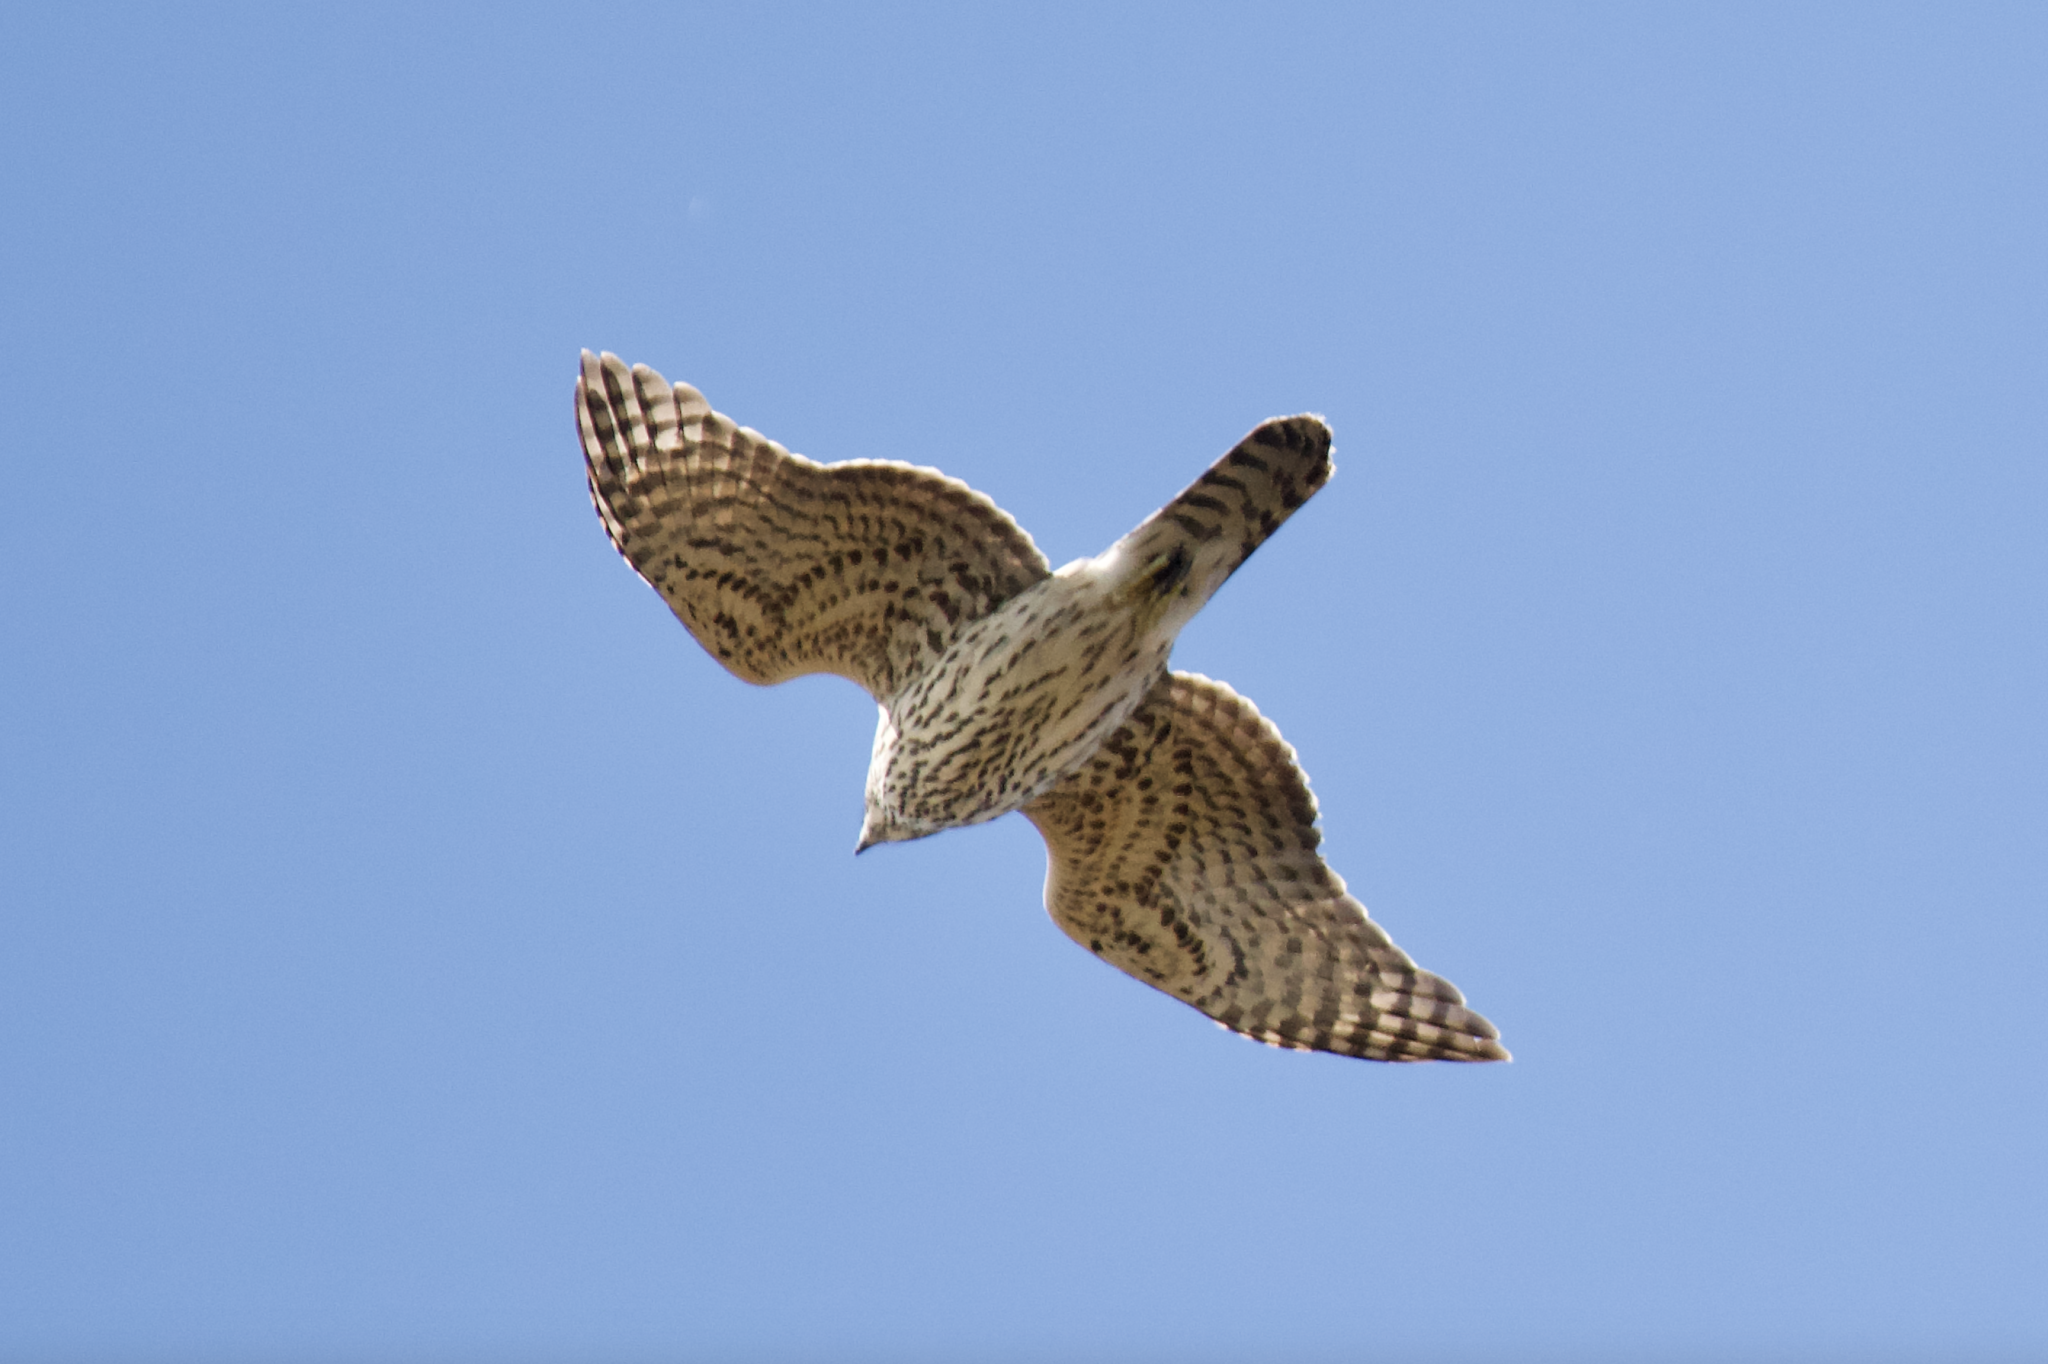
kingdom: Animalia
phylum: Chordata
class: Aves
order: Accipitriformes
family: Accipitridae
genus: Accipiter
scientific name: Accipiter gentilis
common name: Northern goshawk
